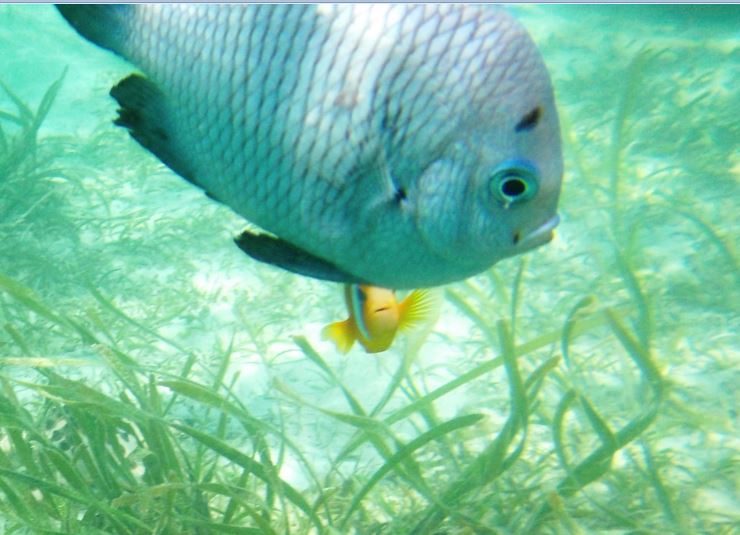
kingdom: Animalia
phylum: Chordata
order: Perciformes
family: Pomacentridae
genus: Dascyllus
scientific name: Dascyllus trimaculatus
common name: Threespot dascyllus
